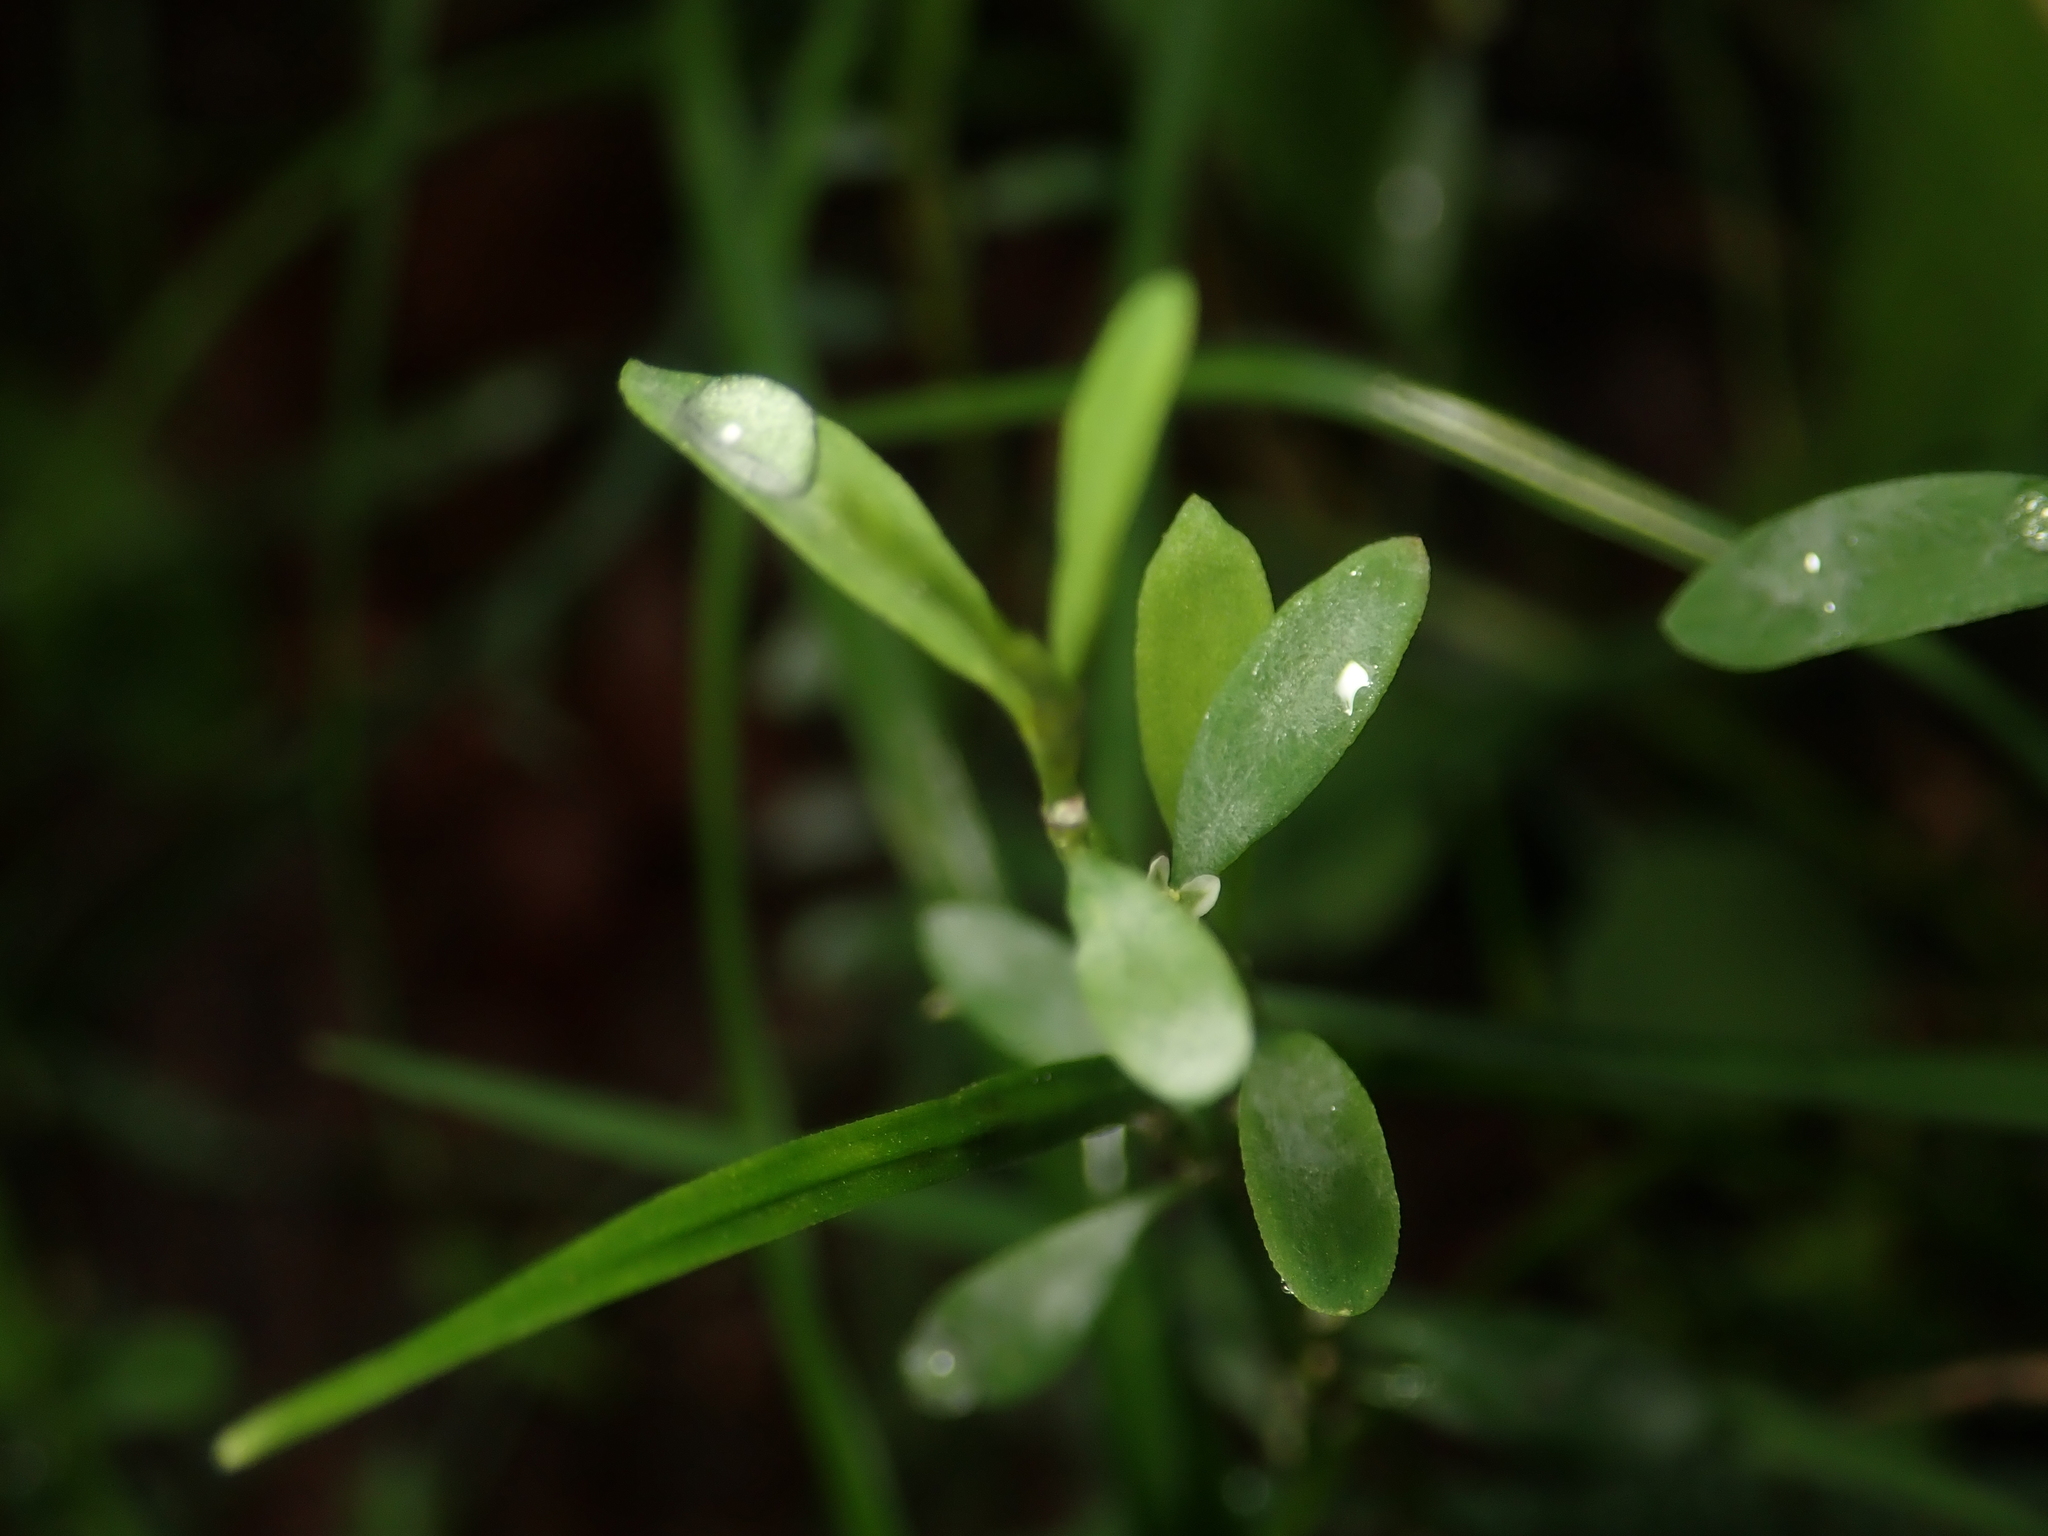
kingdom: Fungi
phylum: Ascomycota
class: Leotiomycetes
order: Helotiales
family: Erysiphaceae
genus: Erysiphe
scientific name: Erysiphe polygoni
